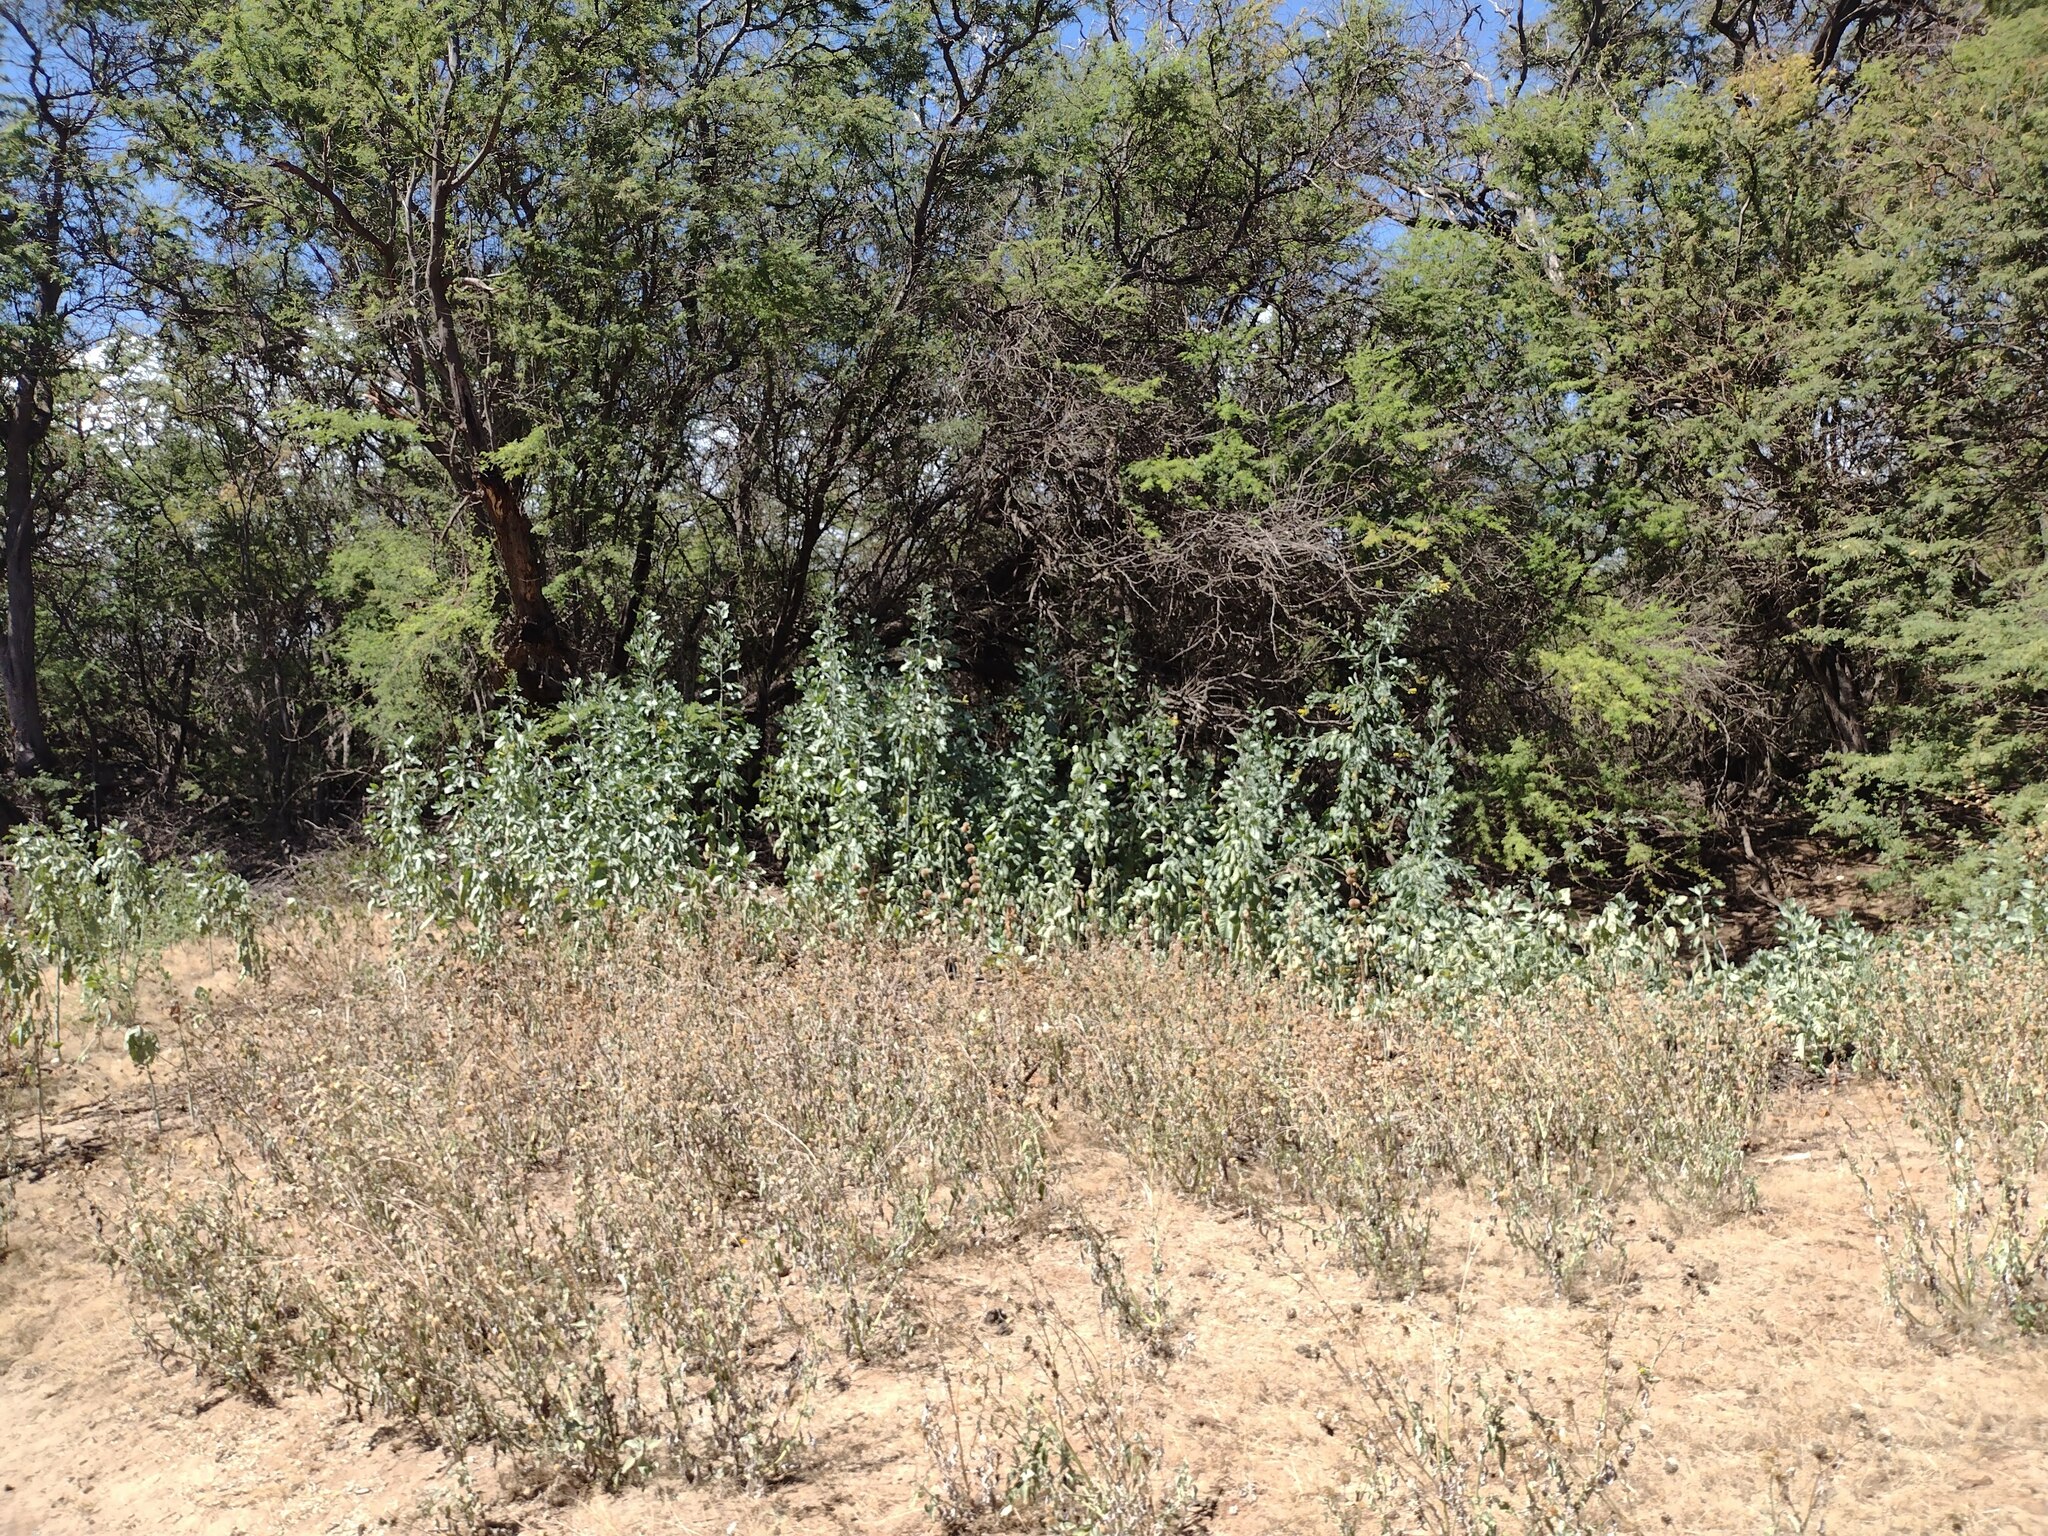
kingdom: Plantae
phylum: Tracheophyta
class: Magnoliopsida
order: Solanales
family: Solanaceae
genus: Nicotiana
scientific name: Nicotiana glauca
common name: Tree tobacco
